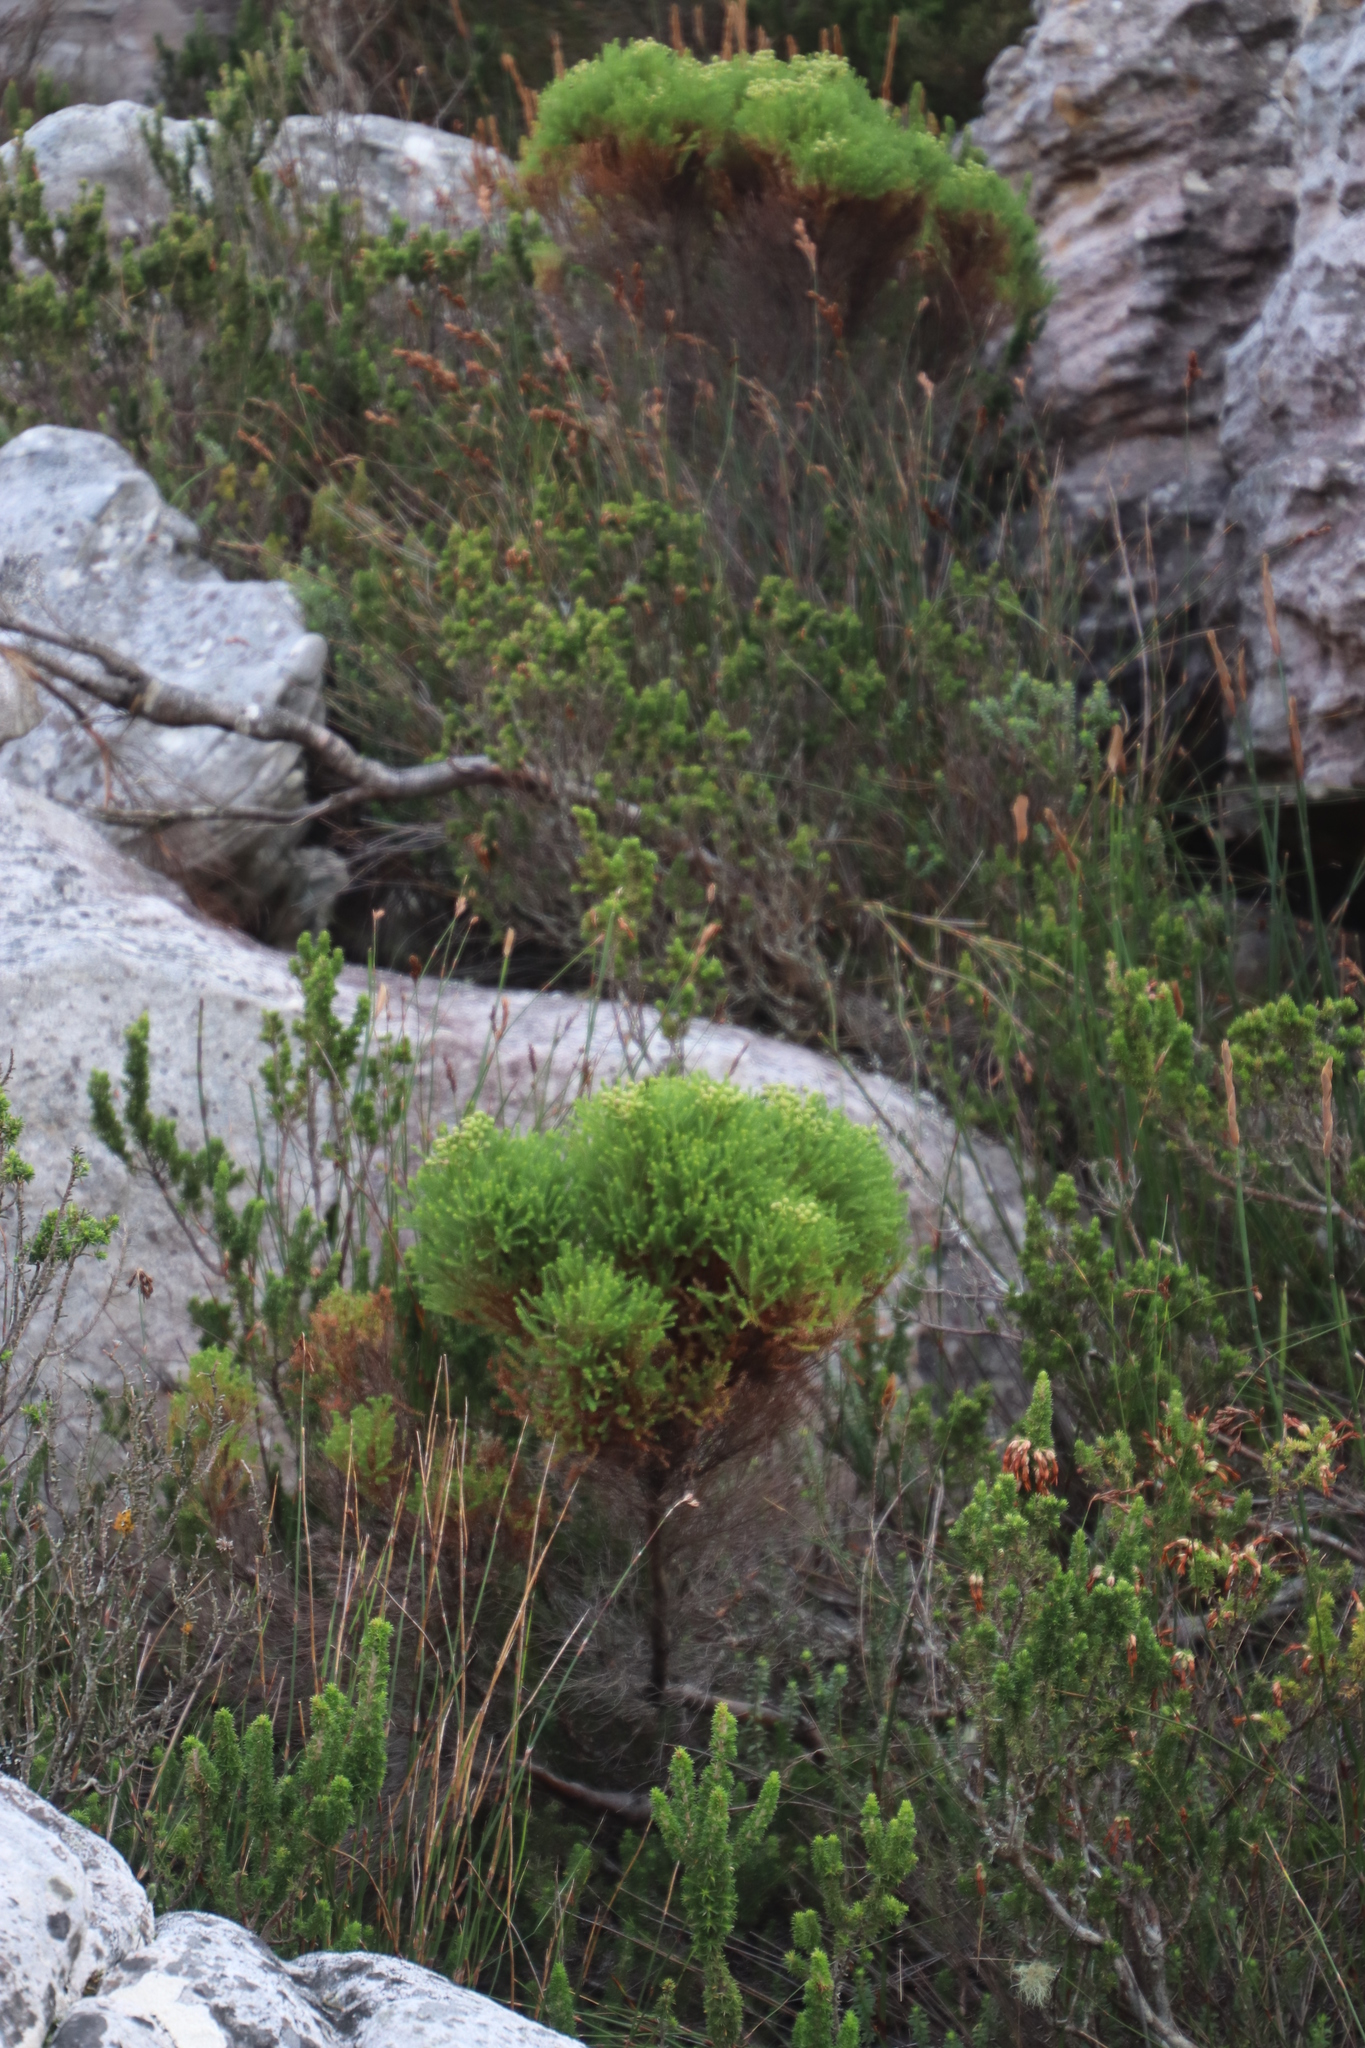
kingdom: Plantae
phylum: Tracheophyta
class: Magnoliopsida
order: Bruniales
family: Bruniaceae
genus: Berzelia
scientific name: Berzelia lanuginosa
